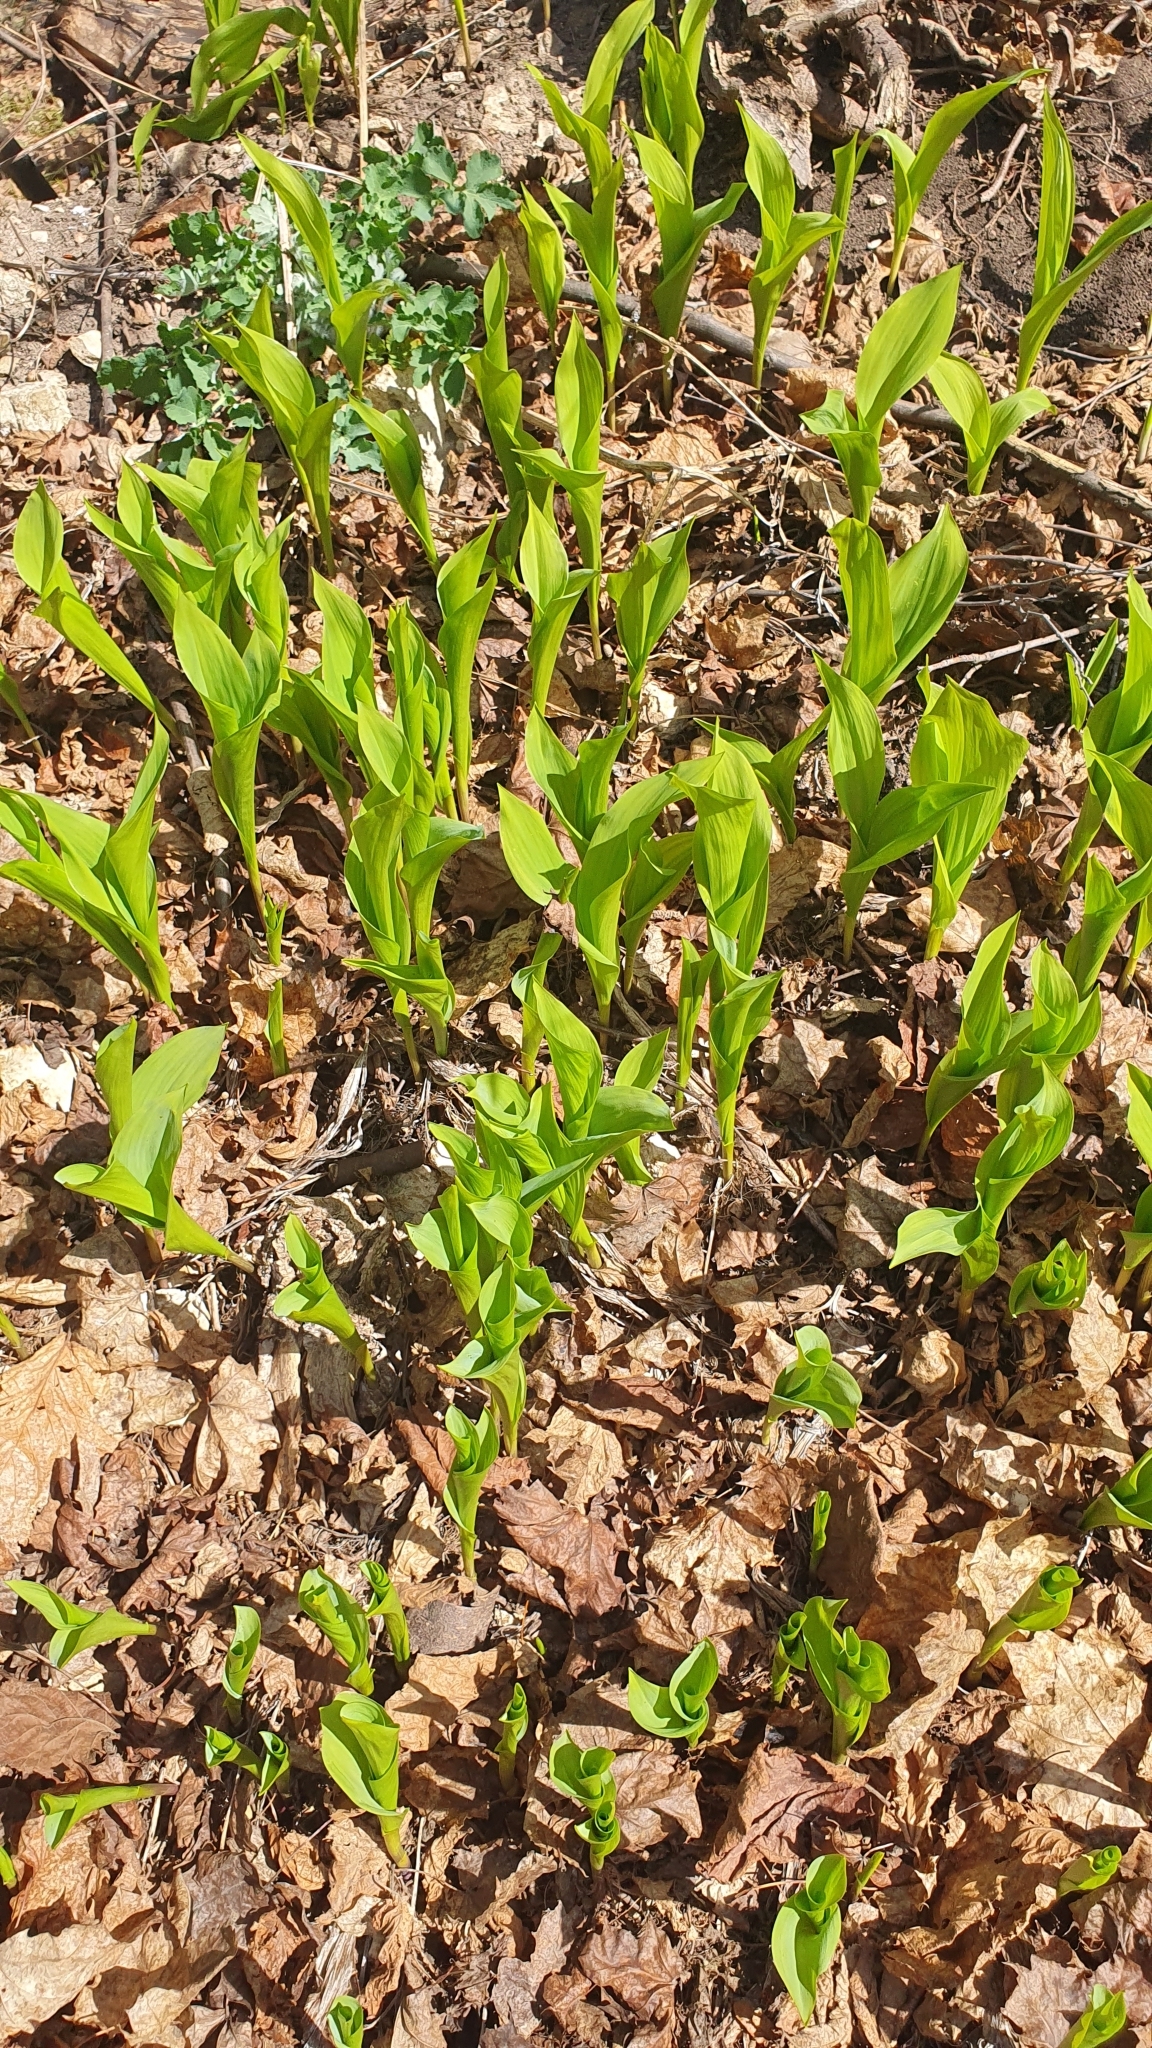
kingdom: Plantae
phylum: Tracheophyta
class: Liliopsida
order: Asparagales
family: Asparagaceae
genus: Convallaria
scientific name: Convallaria majalis
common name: Lily-of-the-valley
